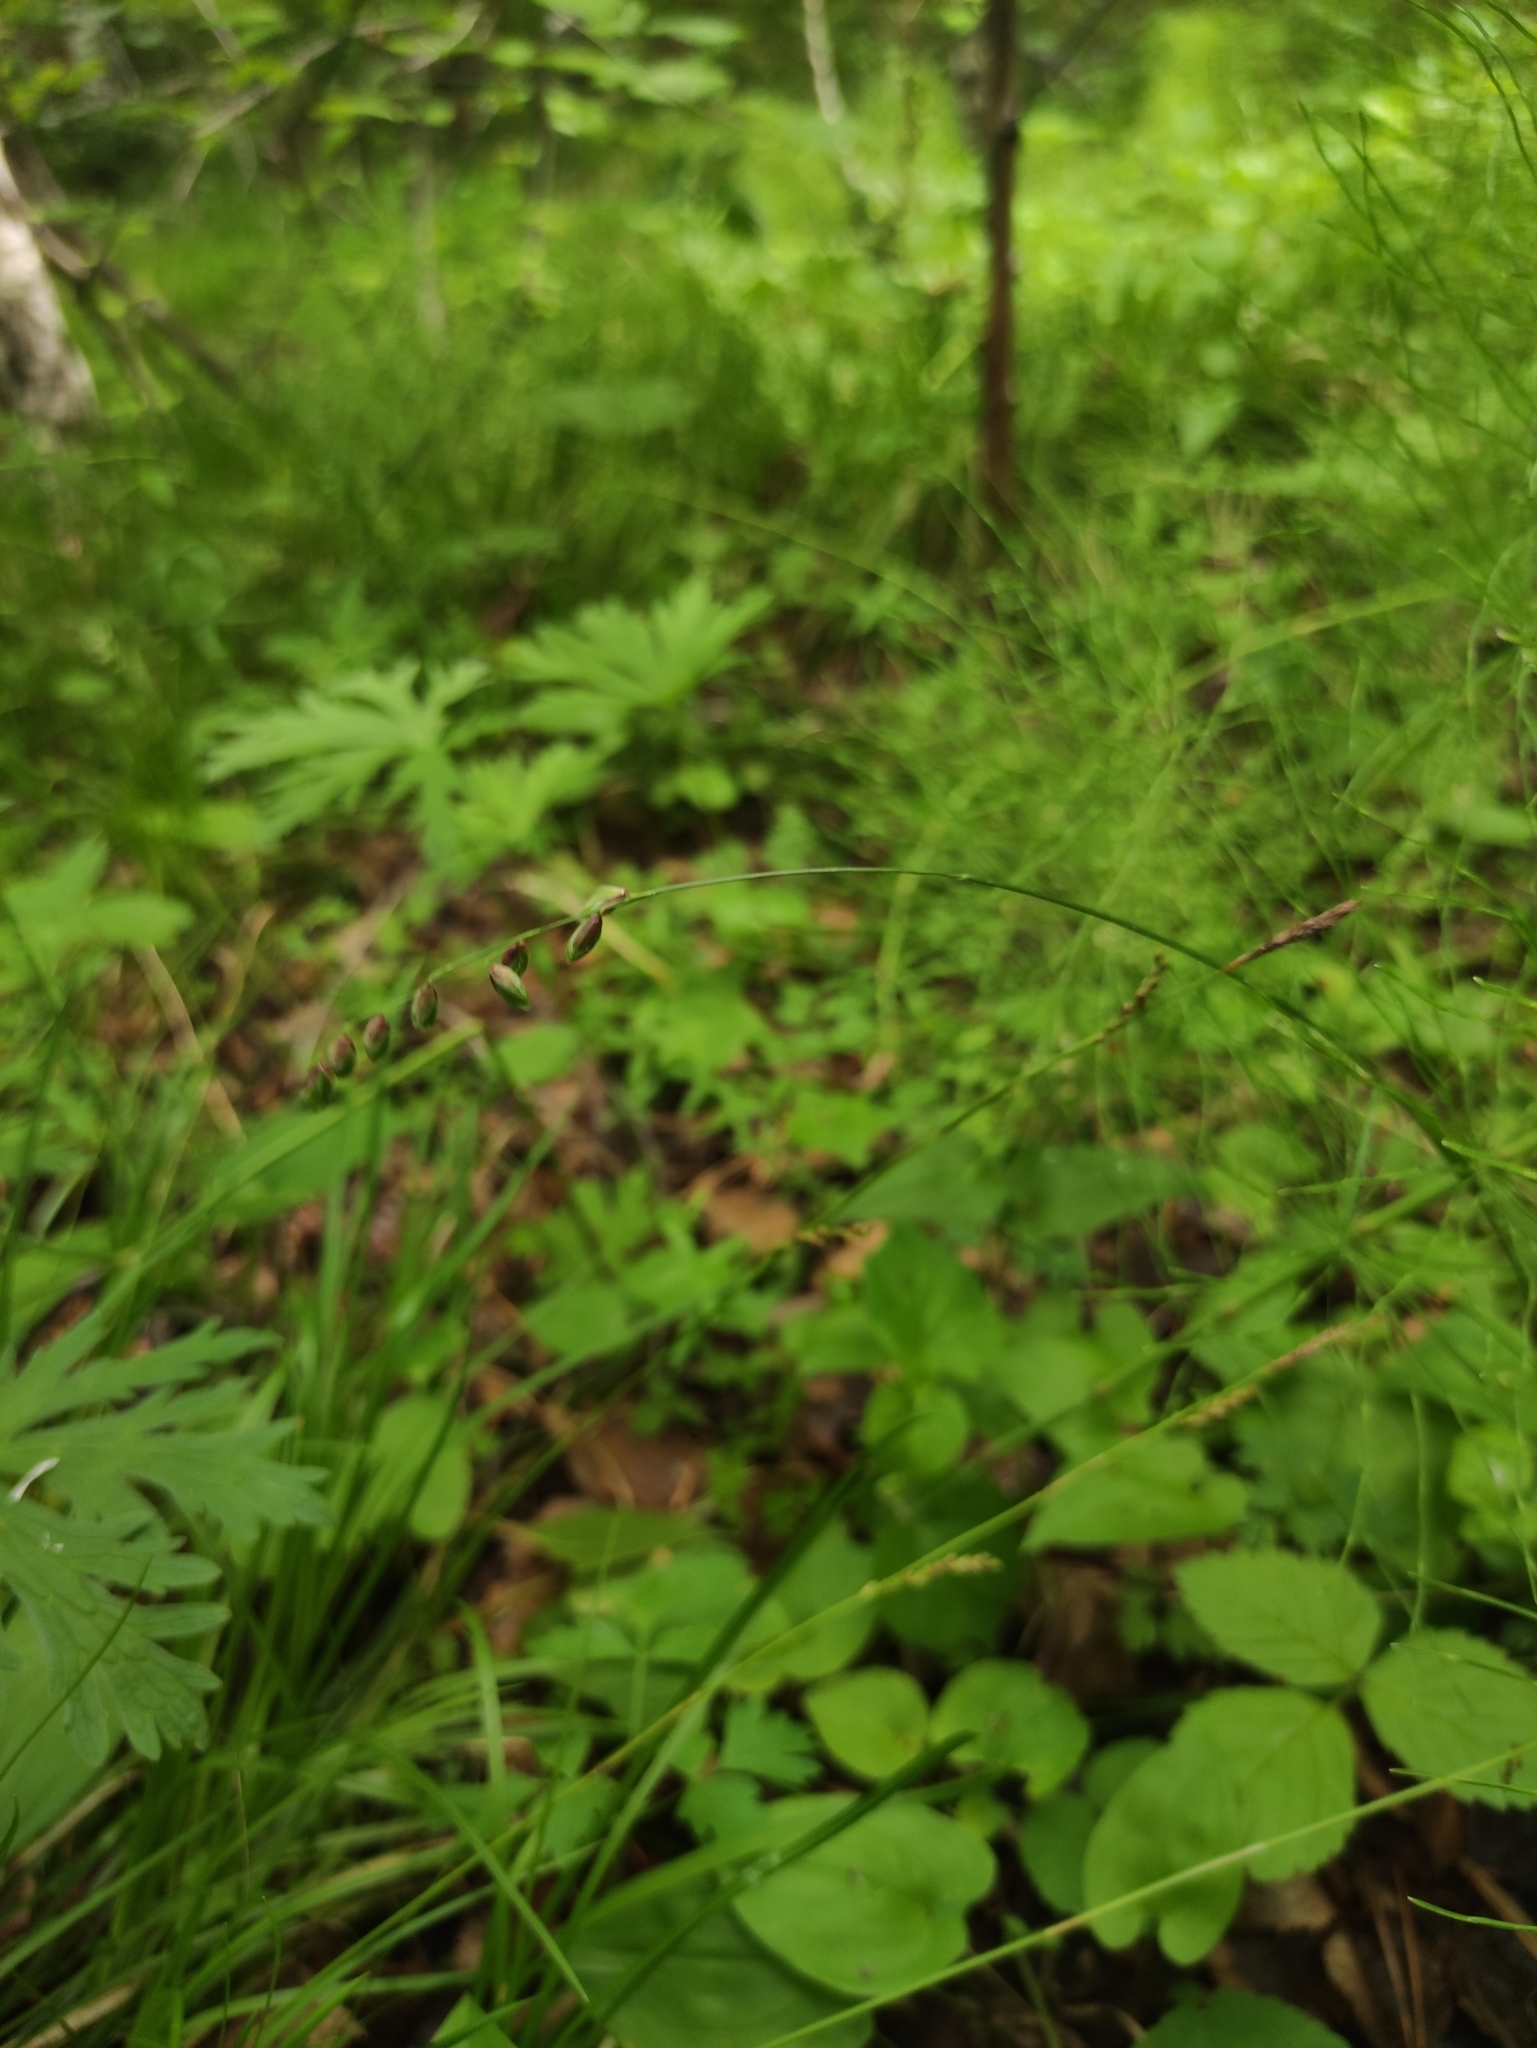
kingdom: Plantae
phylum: Tracheophyta
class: Liliopsida
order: Poales
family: Poaceae
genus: Melica
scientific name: Melica nutans
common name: Mountain melick
